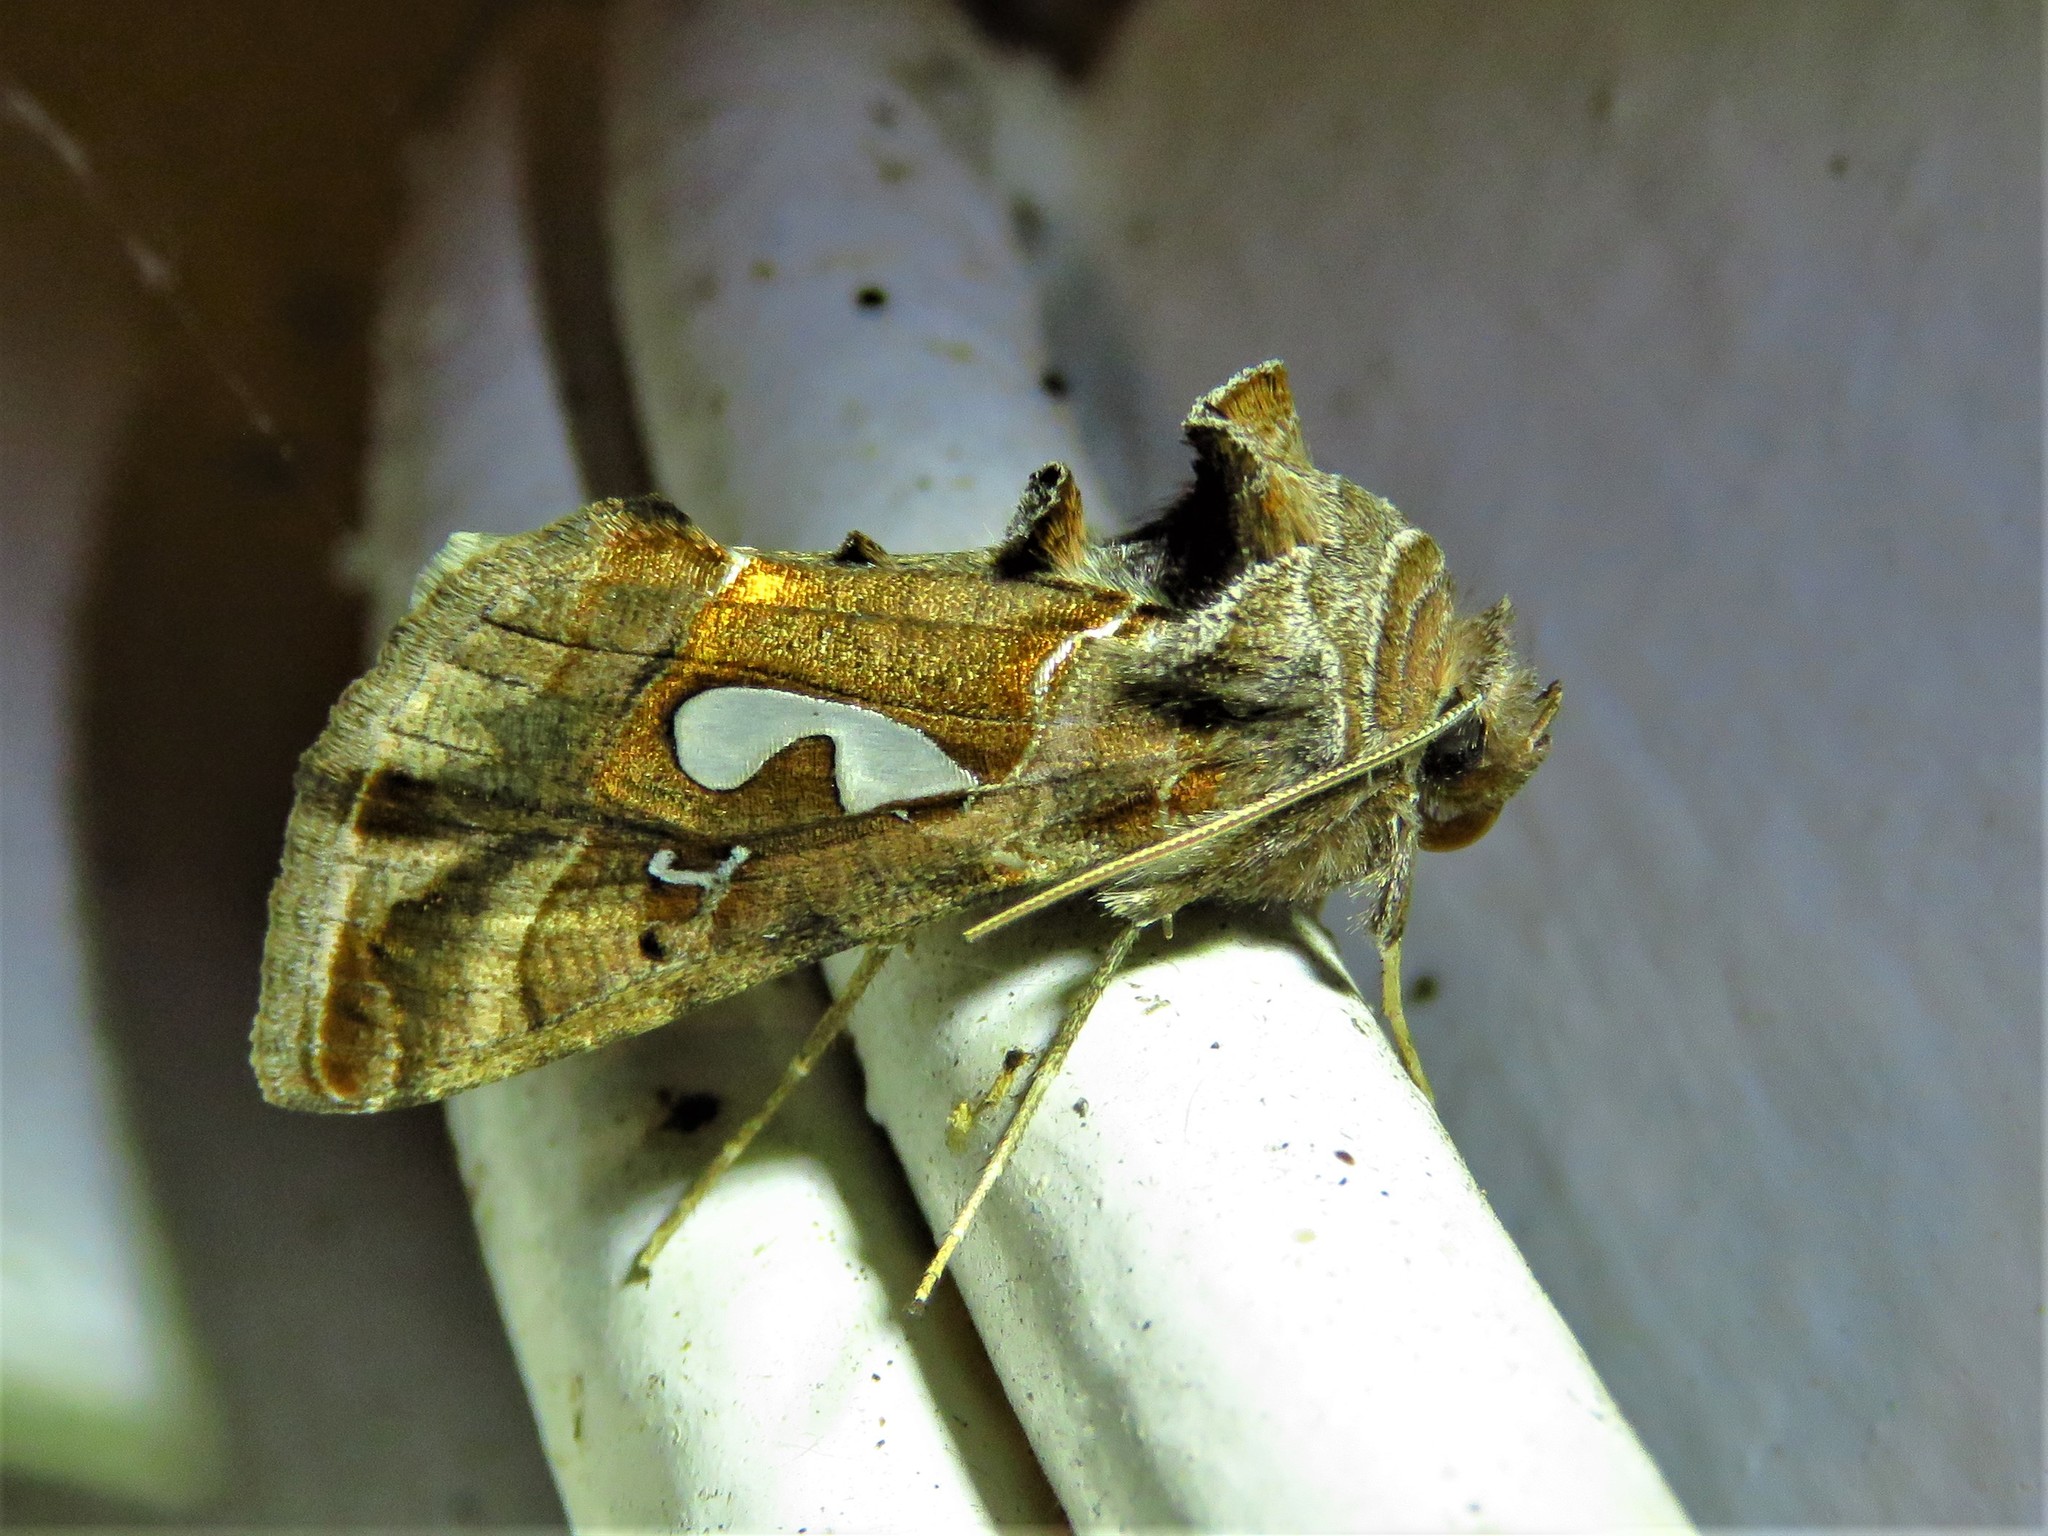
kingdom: Animalia
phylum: Arthropoda
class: Insecta
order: Lepidoptera
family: Noctuidae
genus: Megalographa
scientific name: Megalographa biloba
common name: Cutworm
